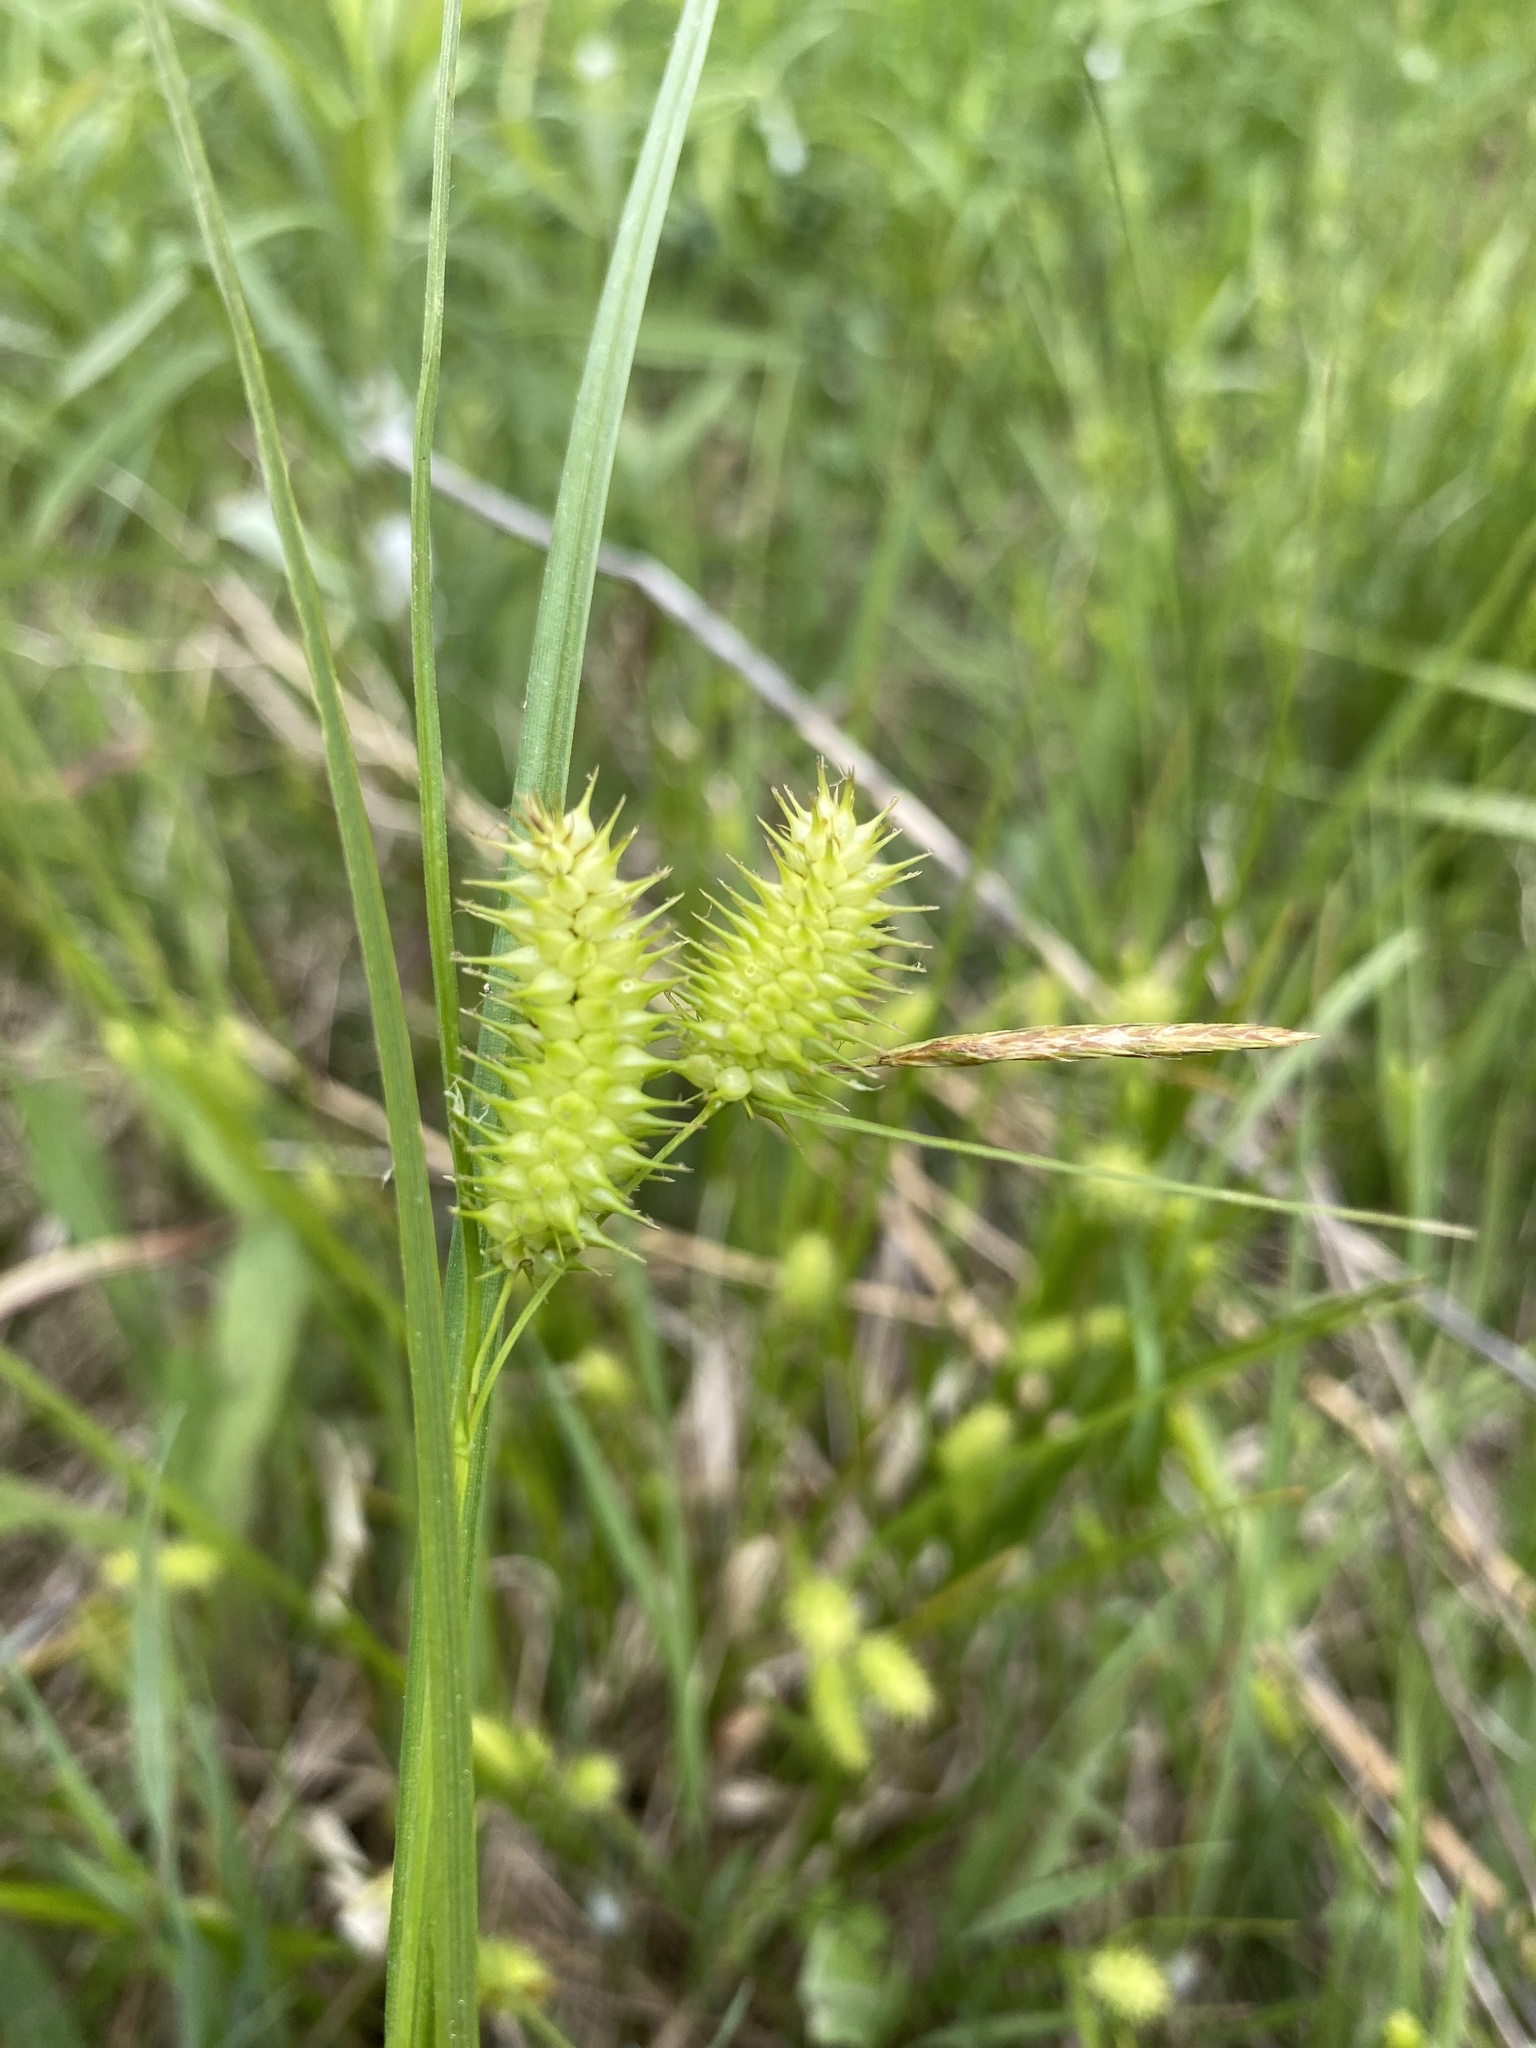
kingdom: Plantae
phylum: Tracheophyta
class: Liliopsida
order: Poales
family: Cyperaceae
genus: Carex
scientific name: Carex hystericina
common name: Bottlebrush sedge
